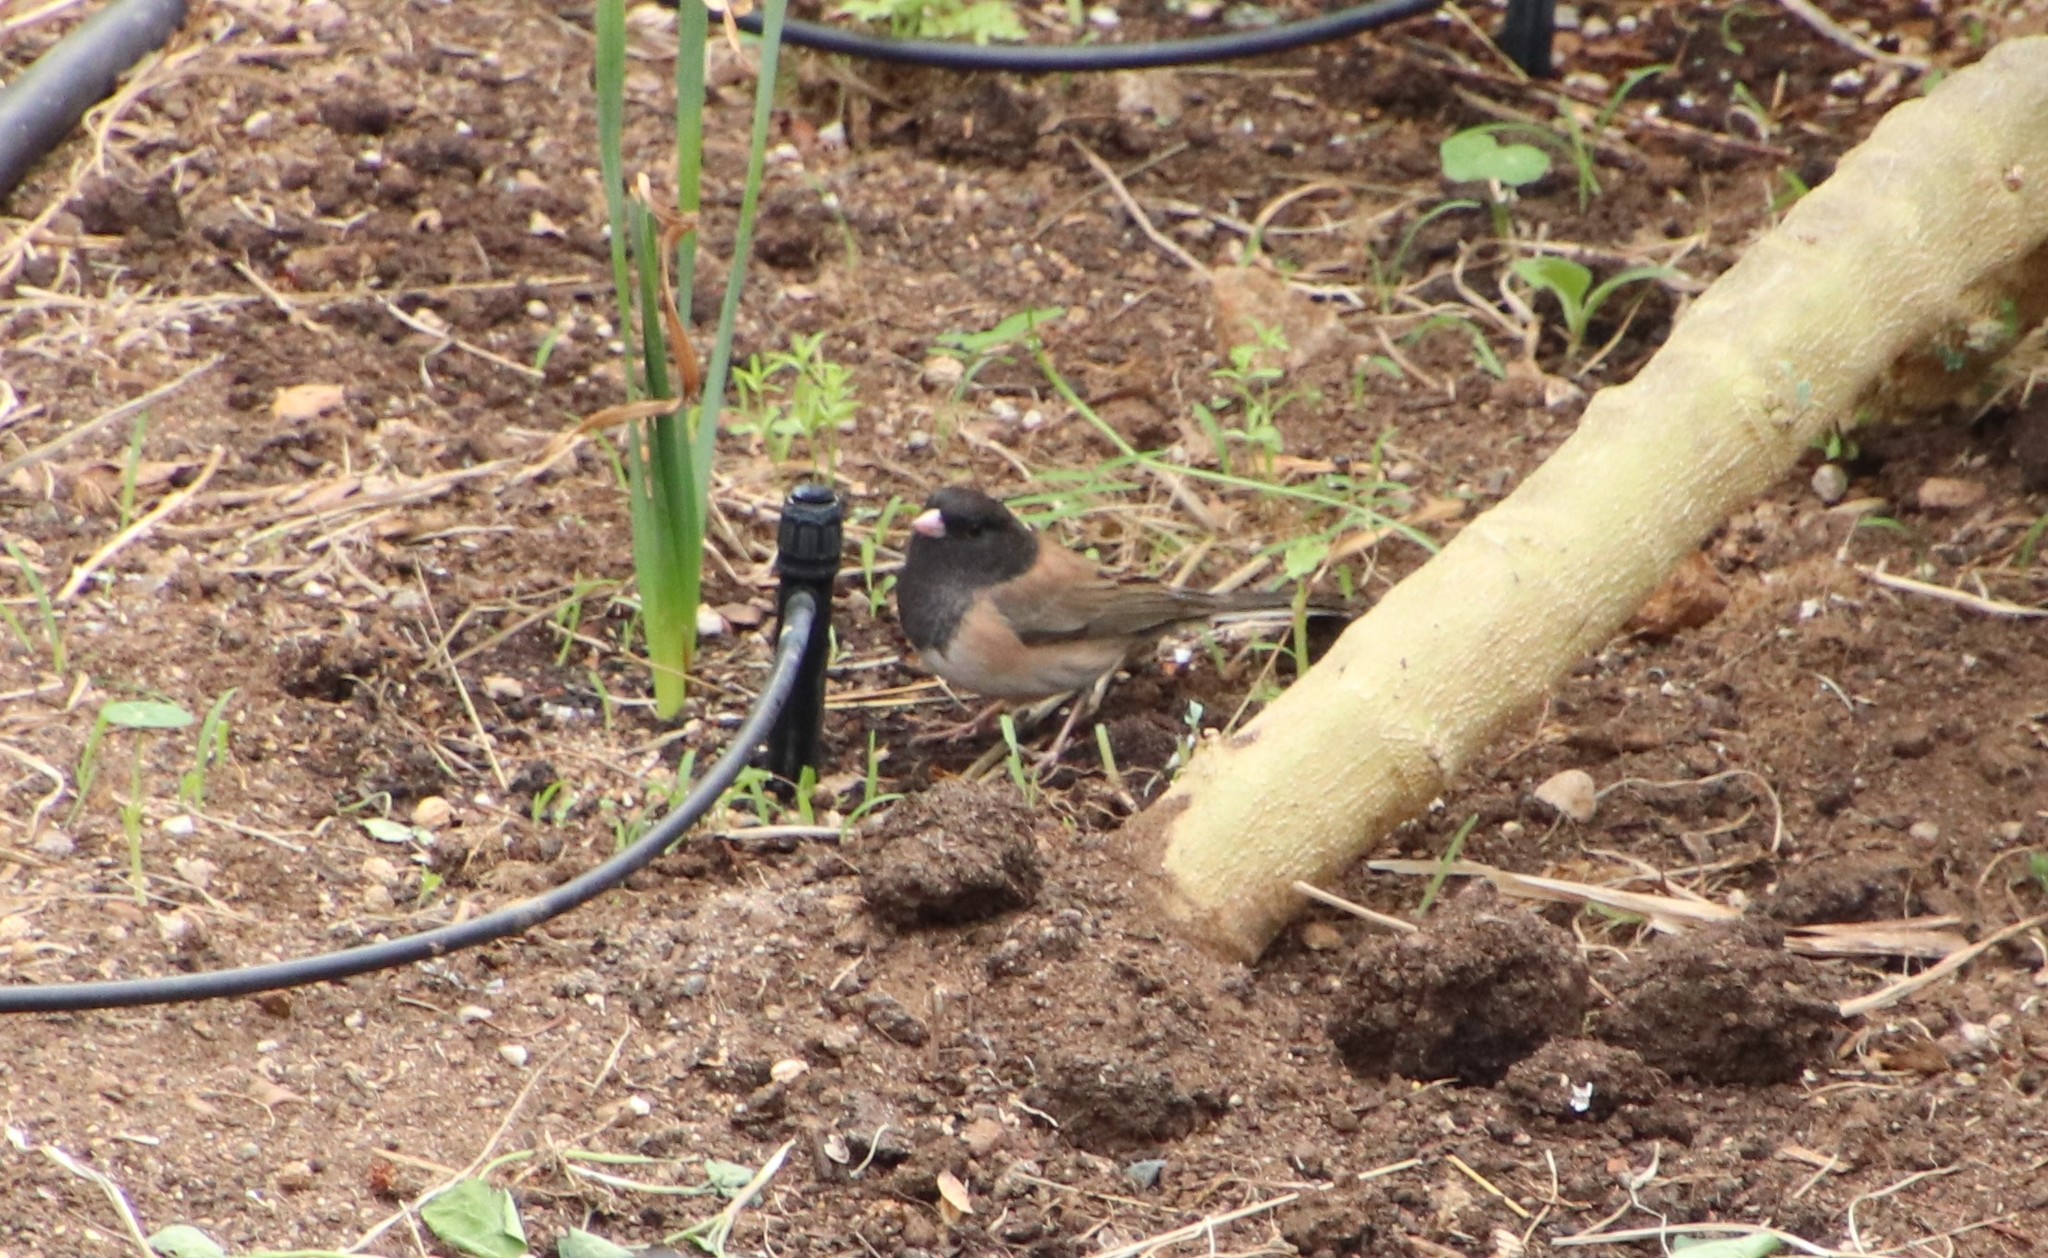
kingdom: Animalia
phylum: Chordata
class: Aves
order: Passeriformes
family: Passerellidae
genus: Junco
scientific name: Junco hyemalis
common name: Dark-eyed junco
